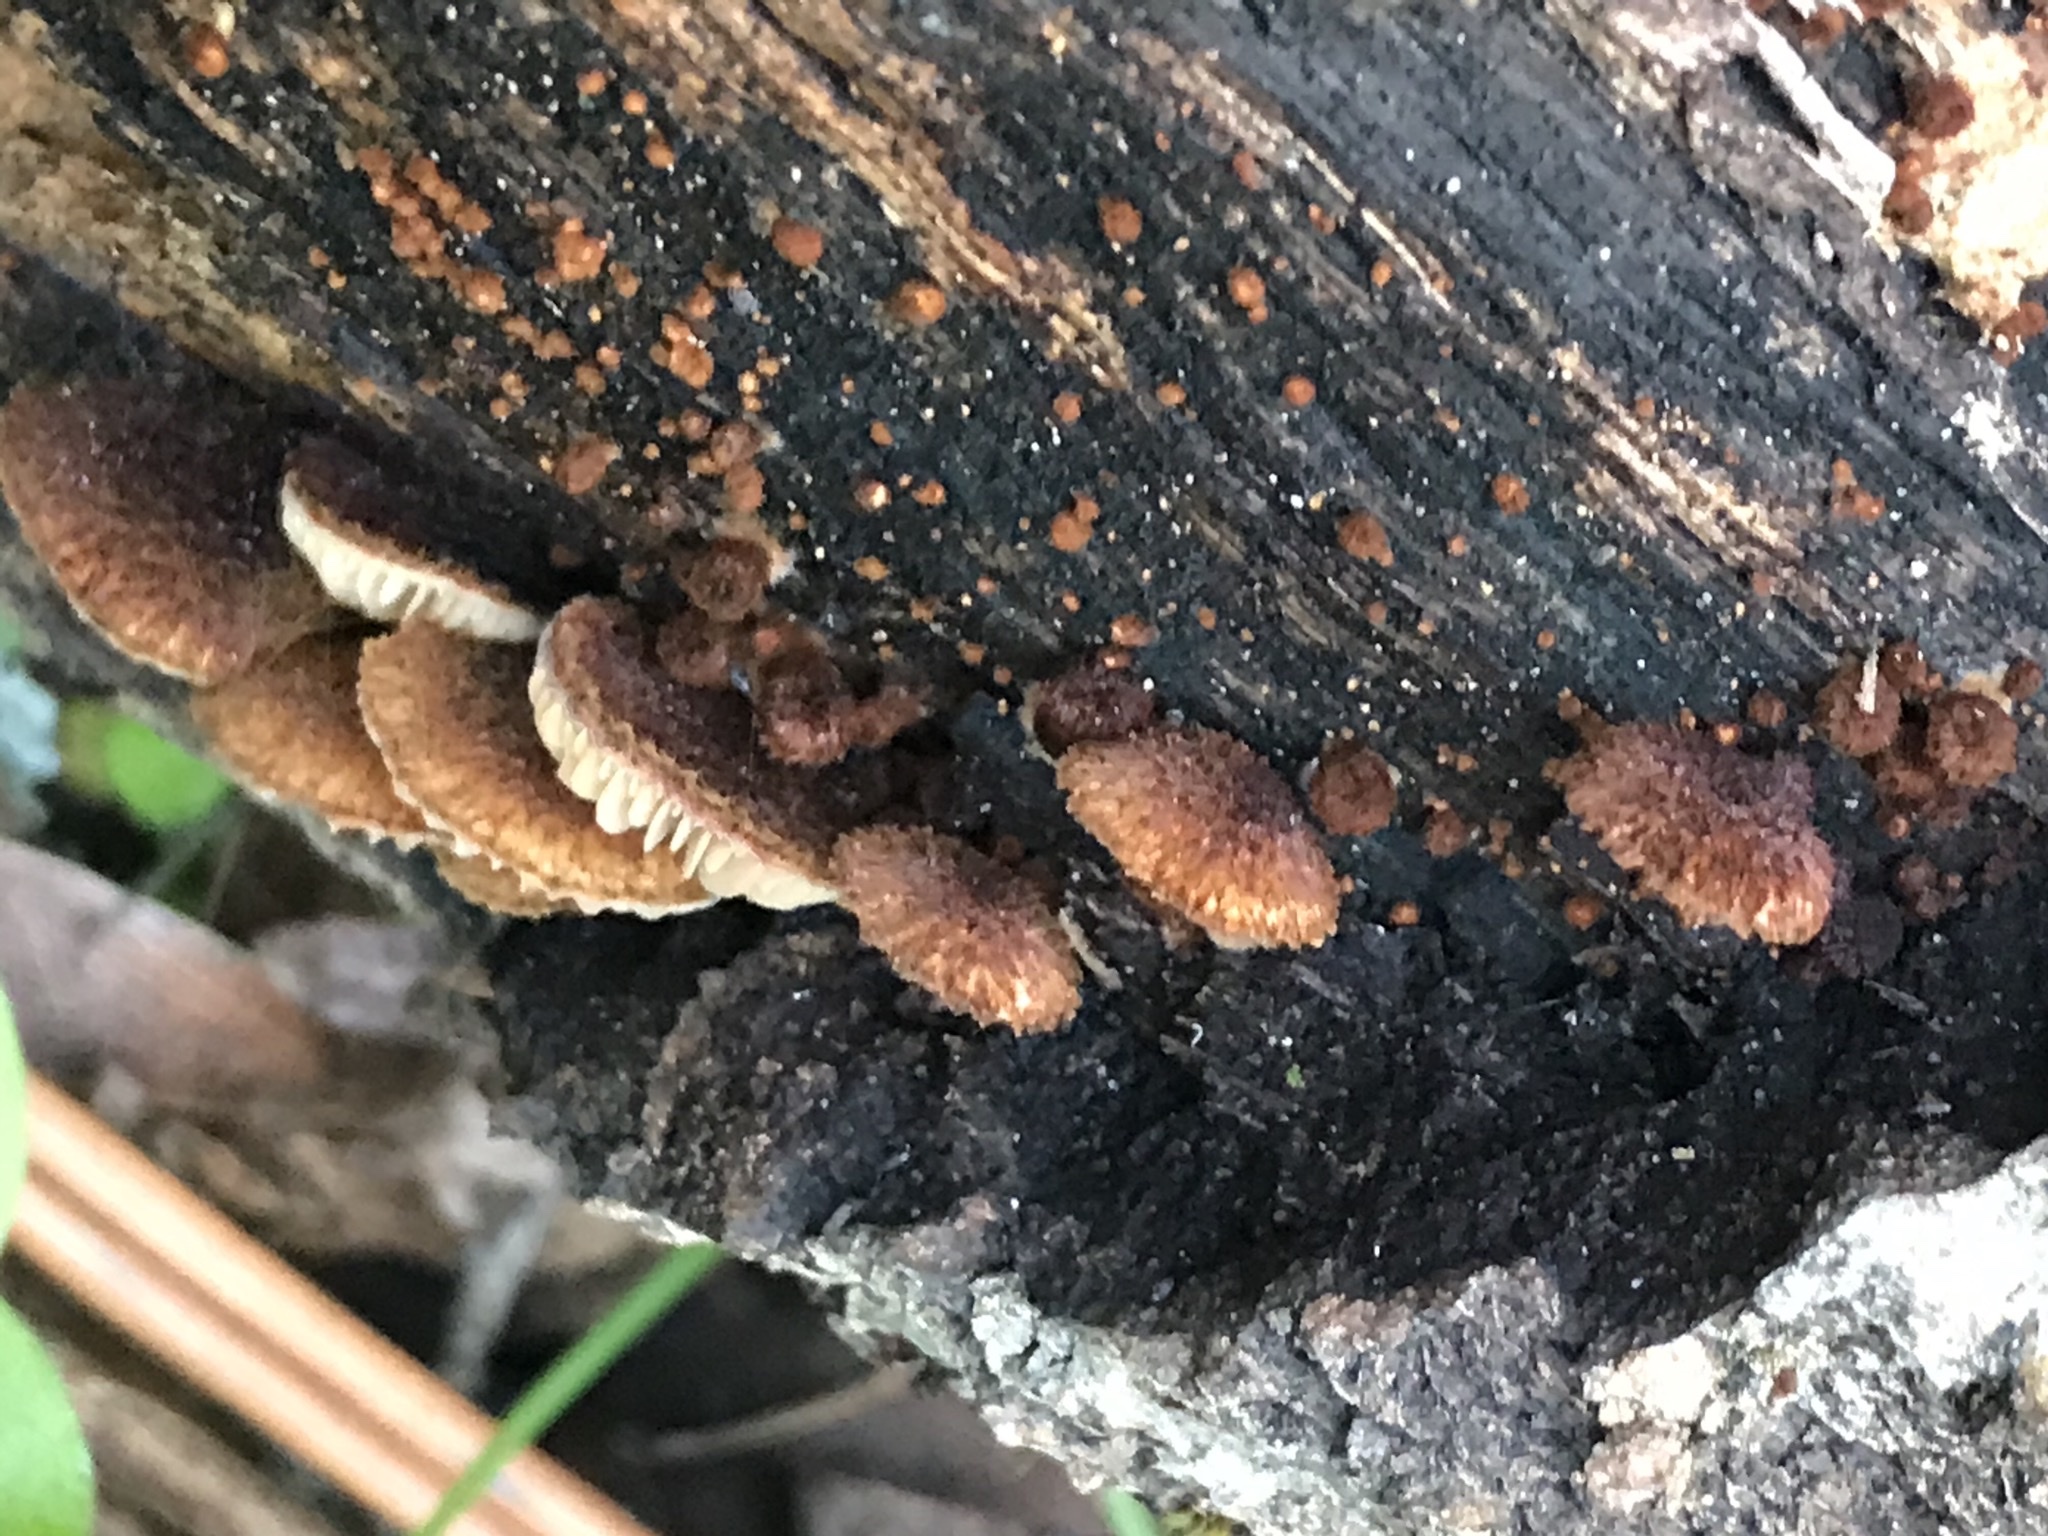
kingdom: Fungi
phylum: Basidiomycota
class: Agaricomycetes
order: Agaricales
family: Tubariaceae
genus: Phaeomarasmius
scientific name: Phaeomarasmius erinaceus
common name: Hedgehog scalycap
